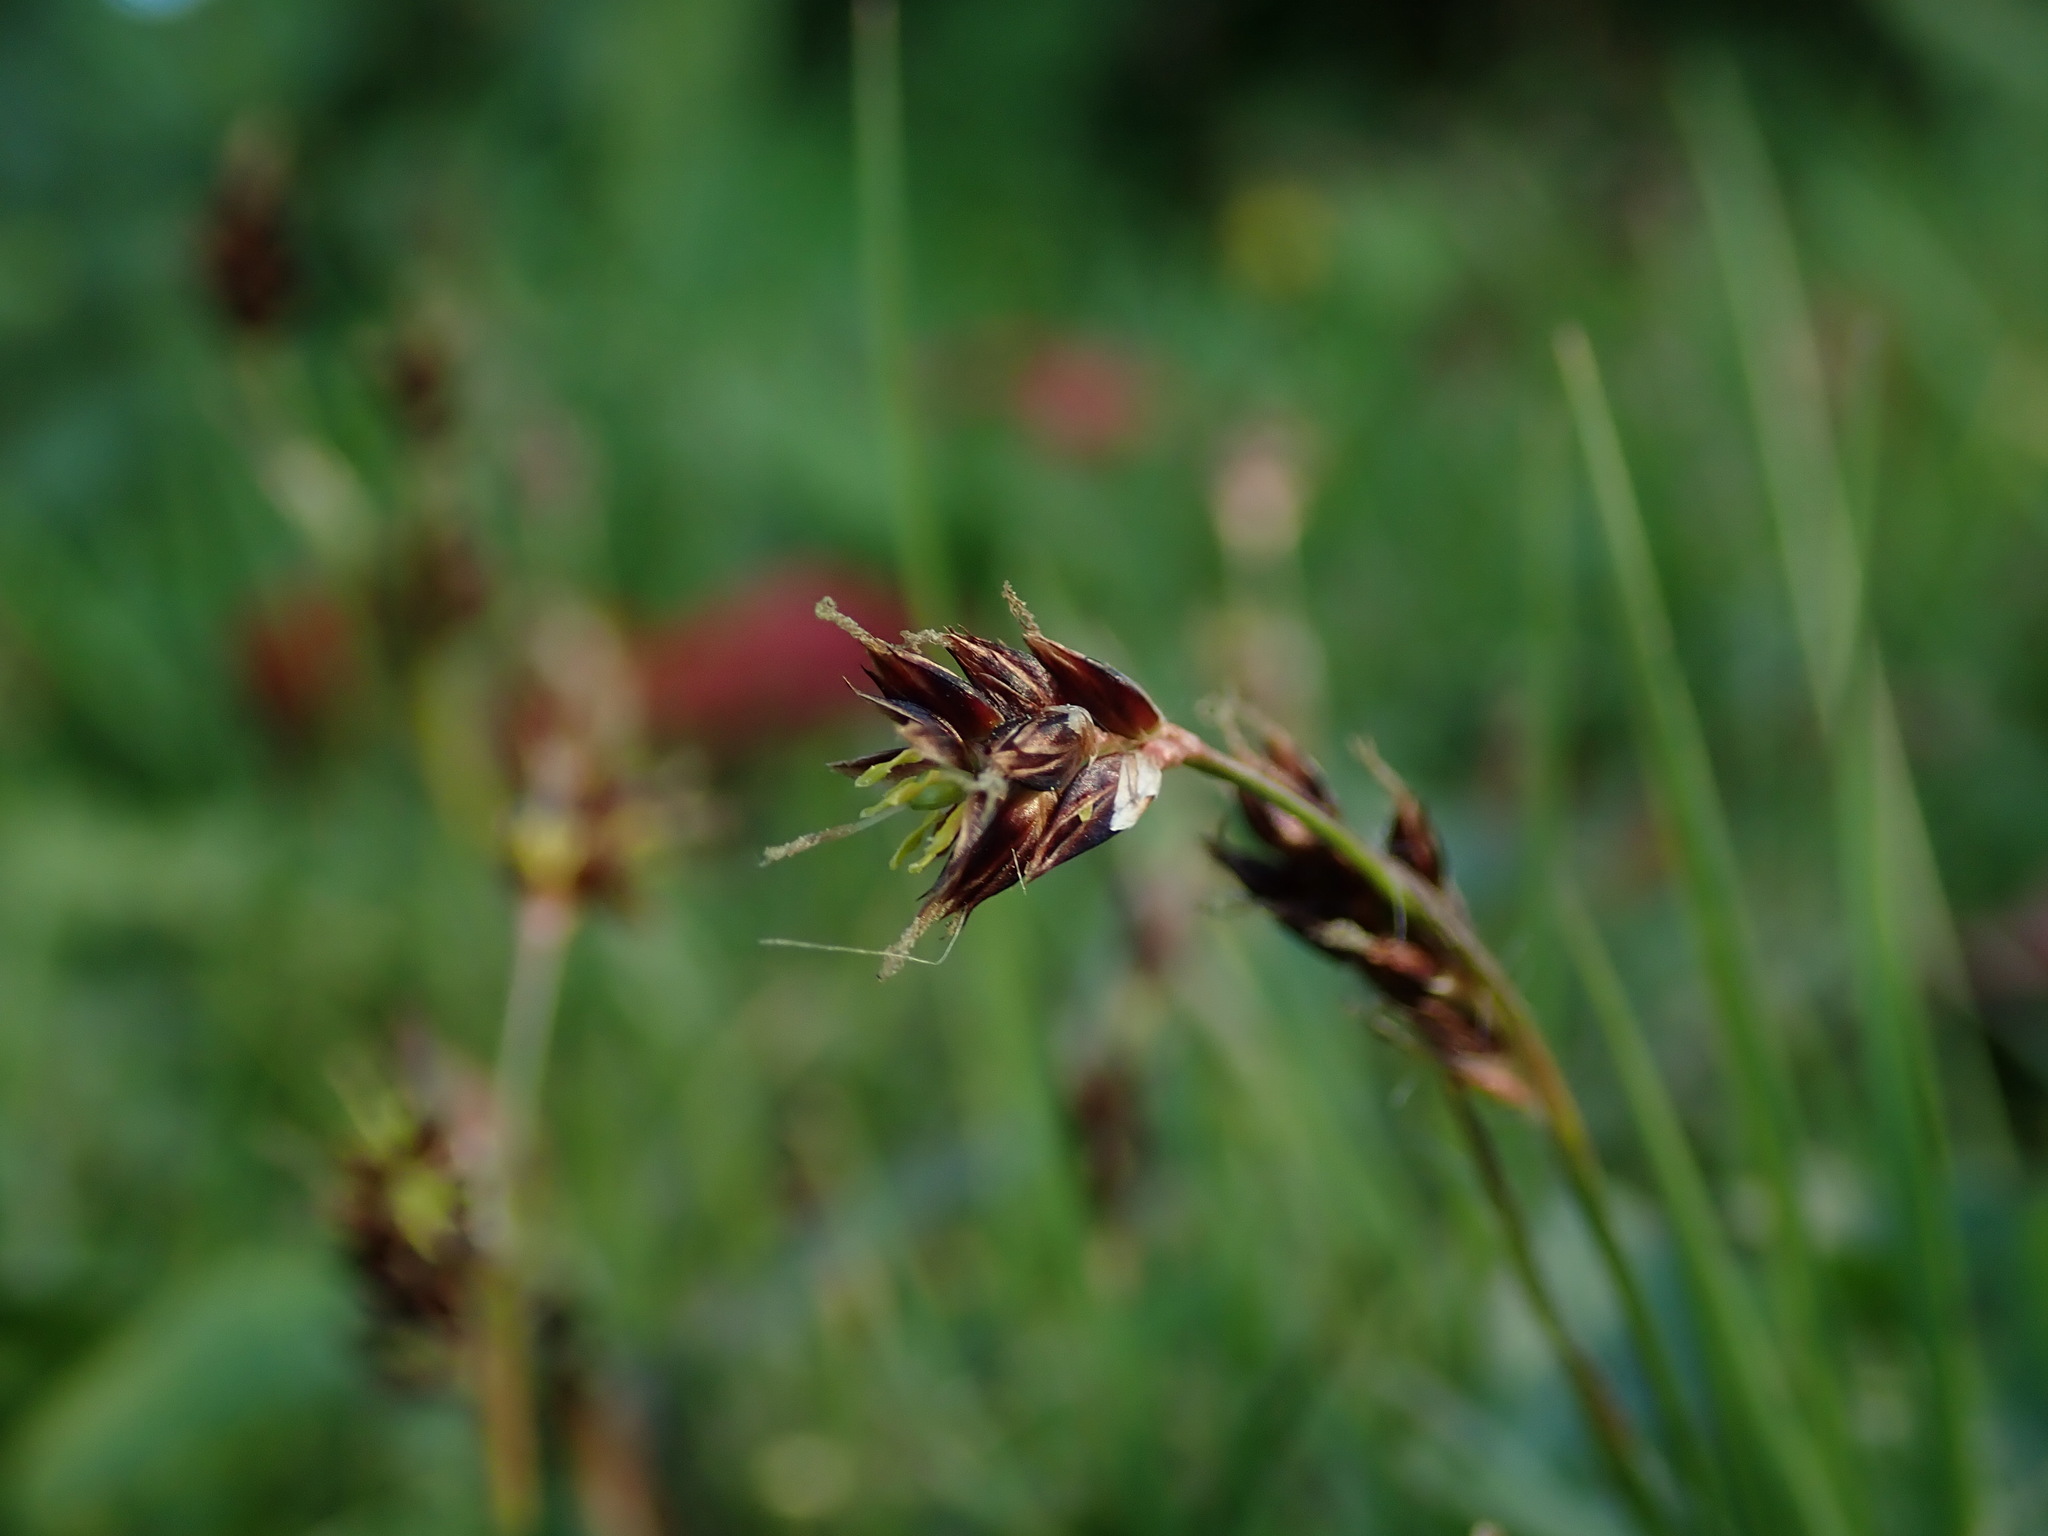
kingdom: Plantae
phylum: Tracheophyta
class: Liliopsida
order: Poales
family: Juncaceae
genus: Luzula
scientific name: Luzula campestris
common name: Field wood-rush
